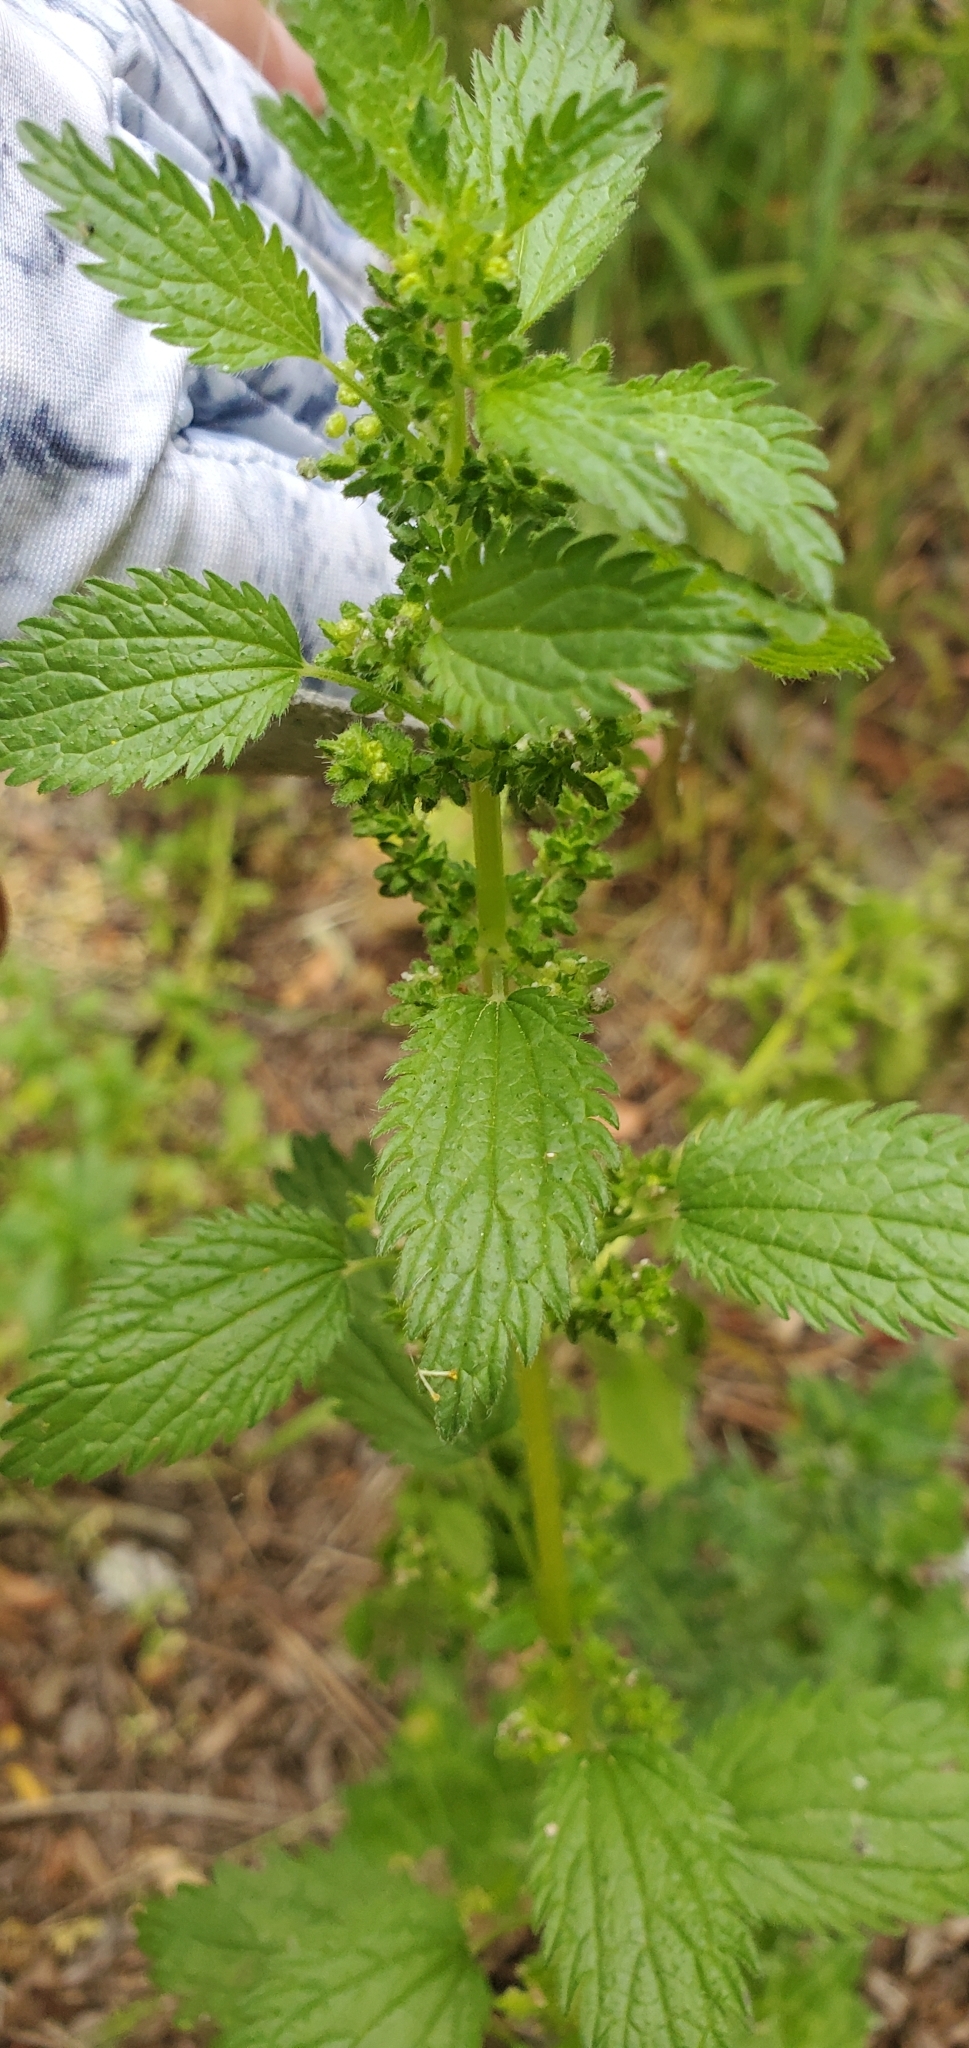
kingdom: Plantae
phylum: Tracheophyta
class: Magnoliopsida
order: Rosales
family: Urticaceae
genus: Urtica
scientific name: Urtica urens
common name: Dwarf nettle
